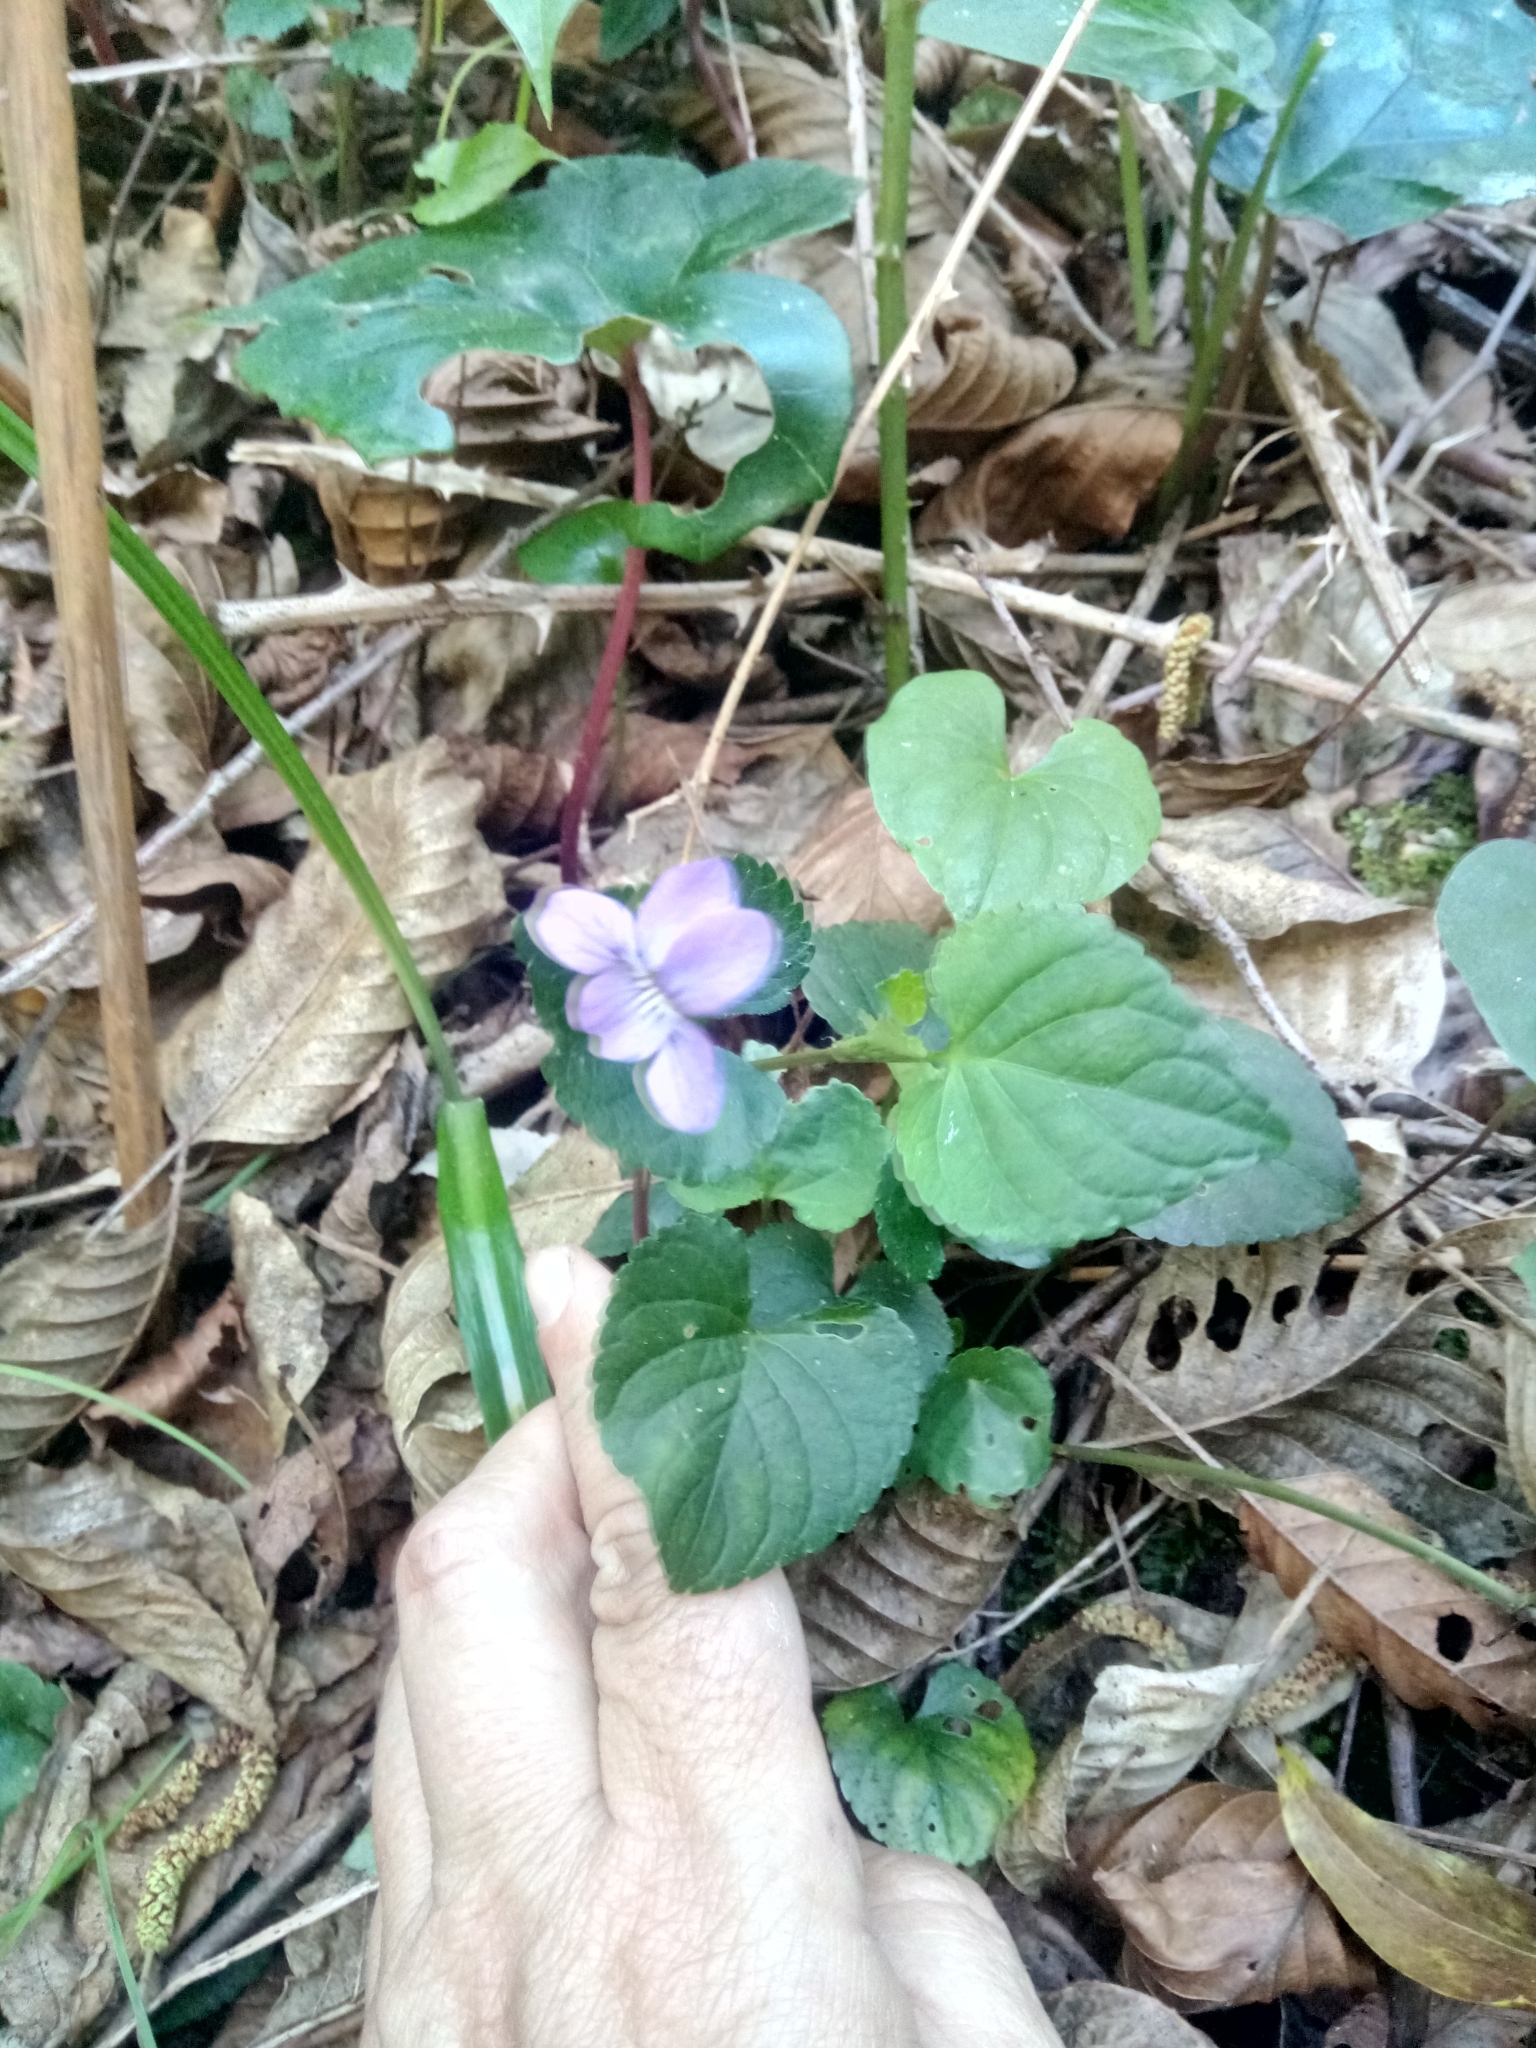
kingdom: Plantae
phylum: Tracheophyta
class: Magnoliopsida
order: Malpighiales
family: Violaceae
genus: Viola
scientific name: Viola reichenbachiana
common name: Early dog-violet
